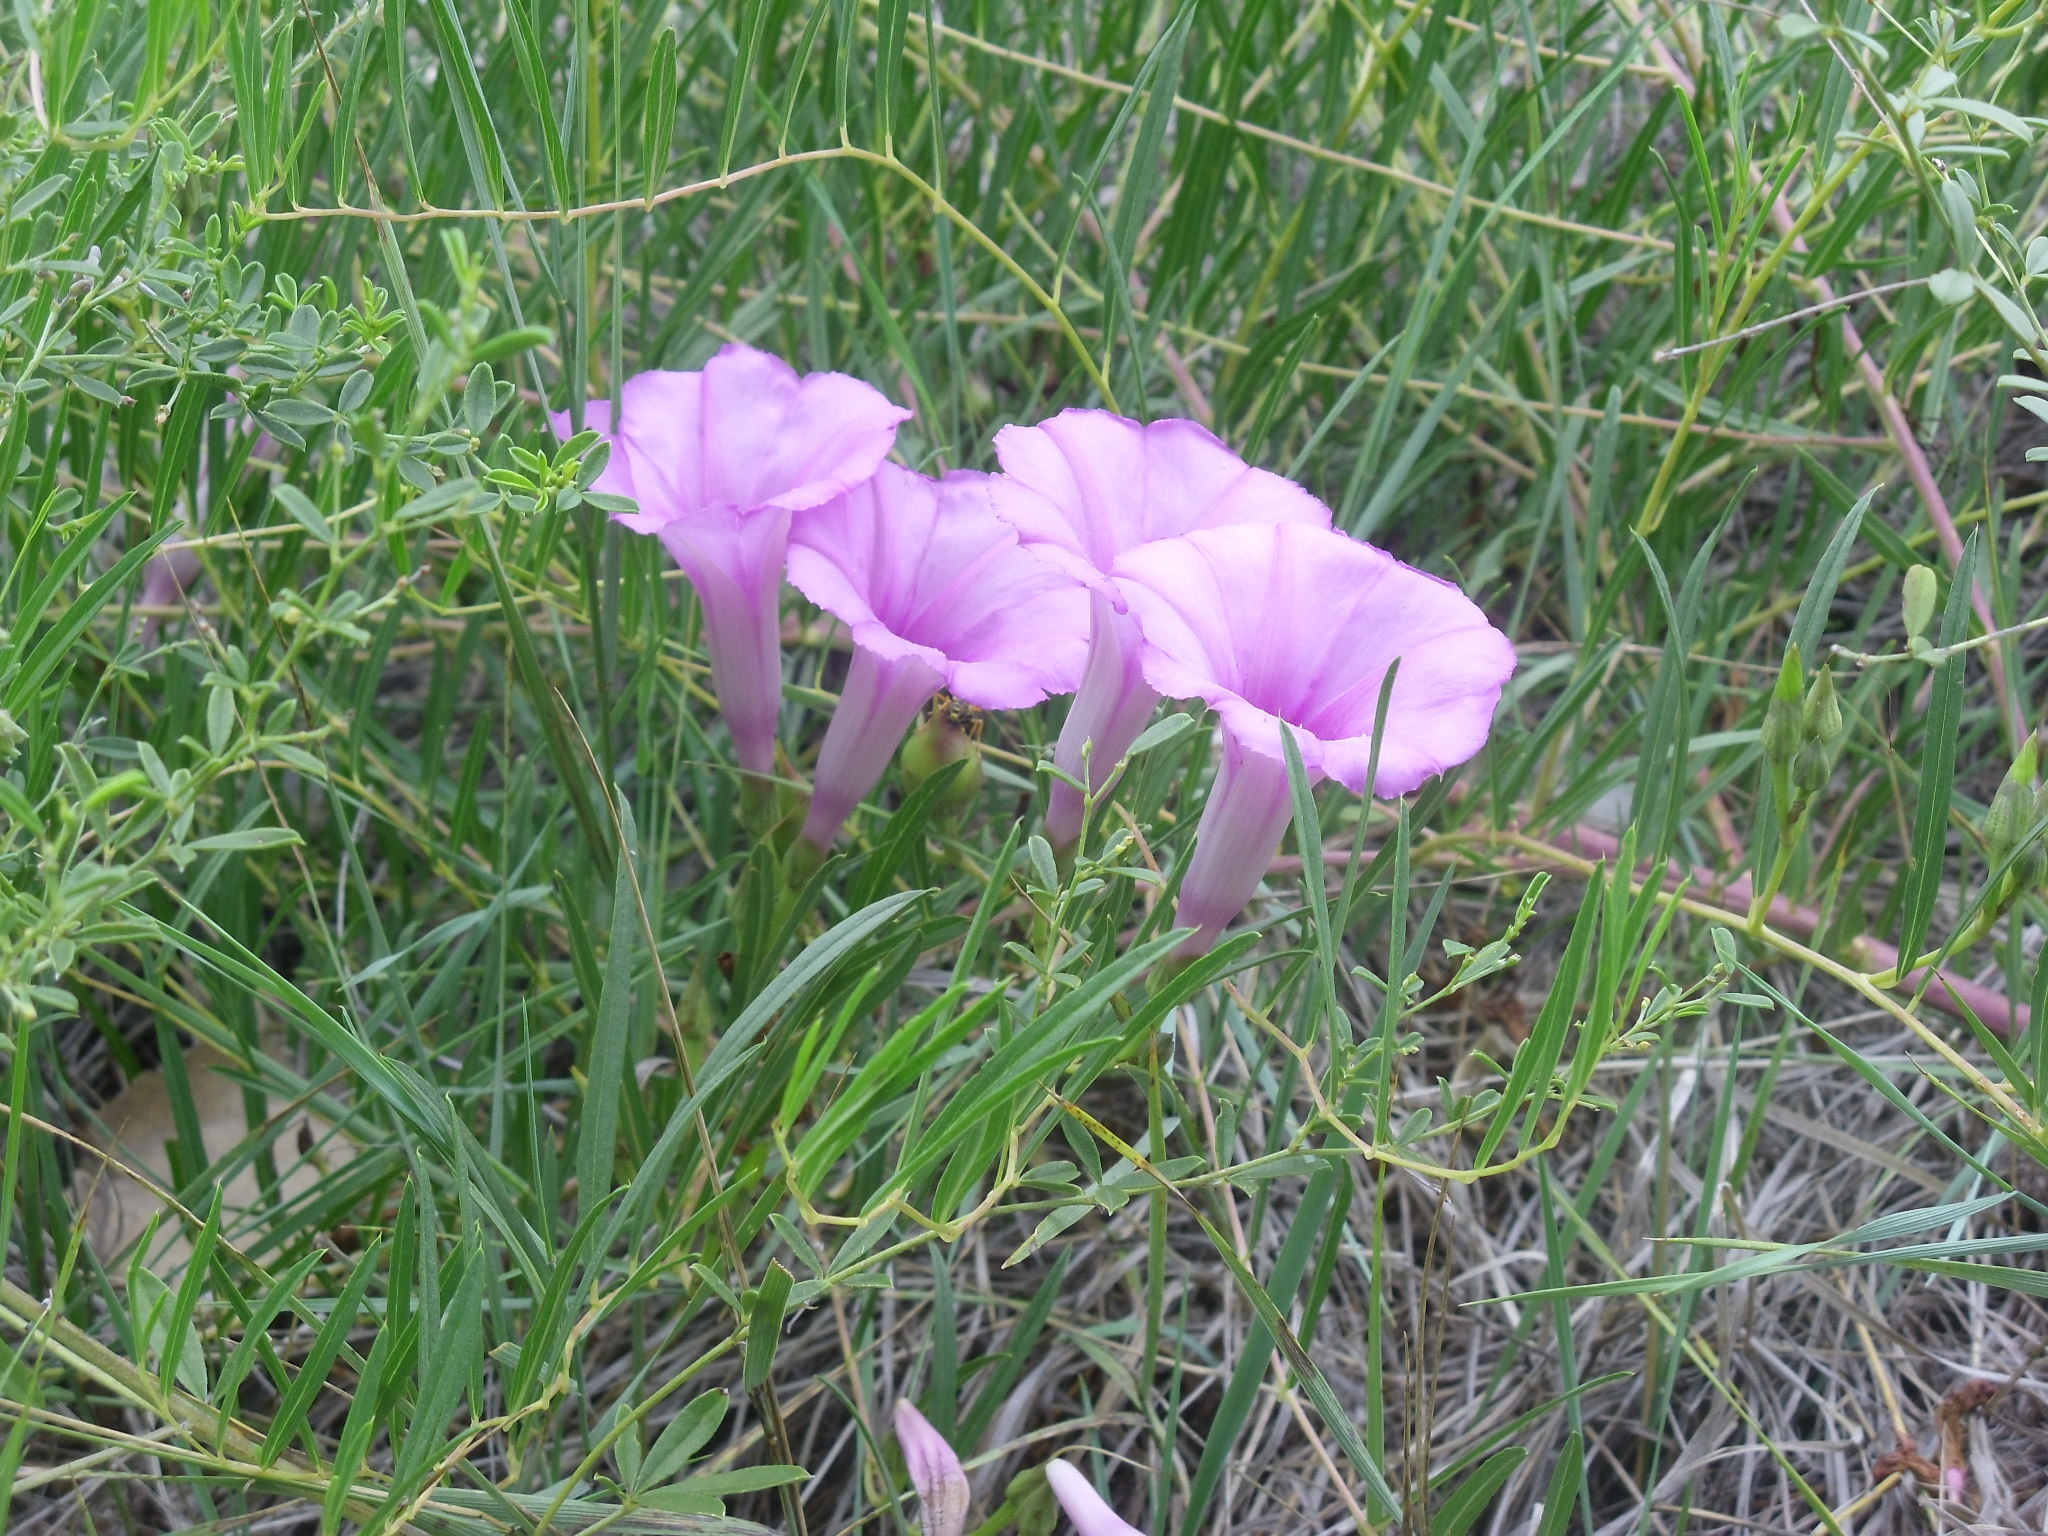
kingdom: Plantae
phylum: Tracheophyta
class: Magnoliopsida
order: Solanales
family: Convolvulaceae
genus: Ipomoea
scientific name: Ipomoea leptophylla
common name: Bush moonflower
